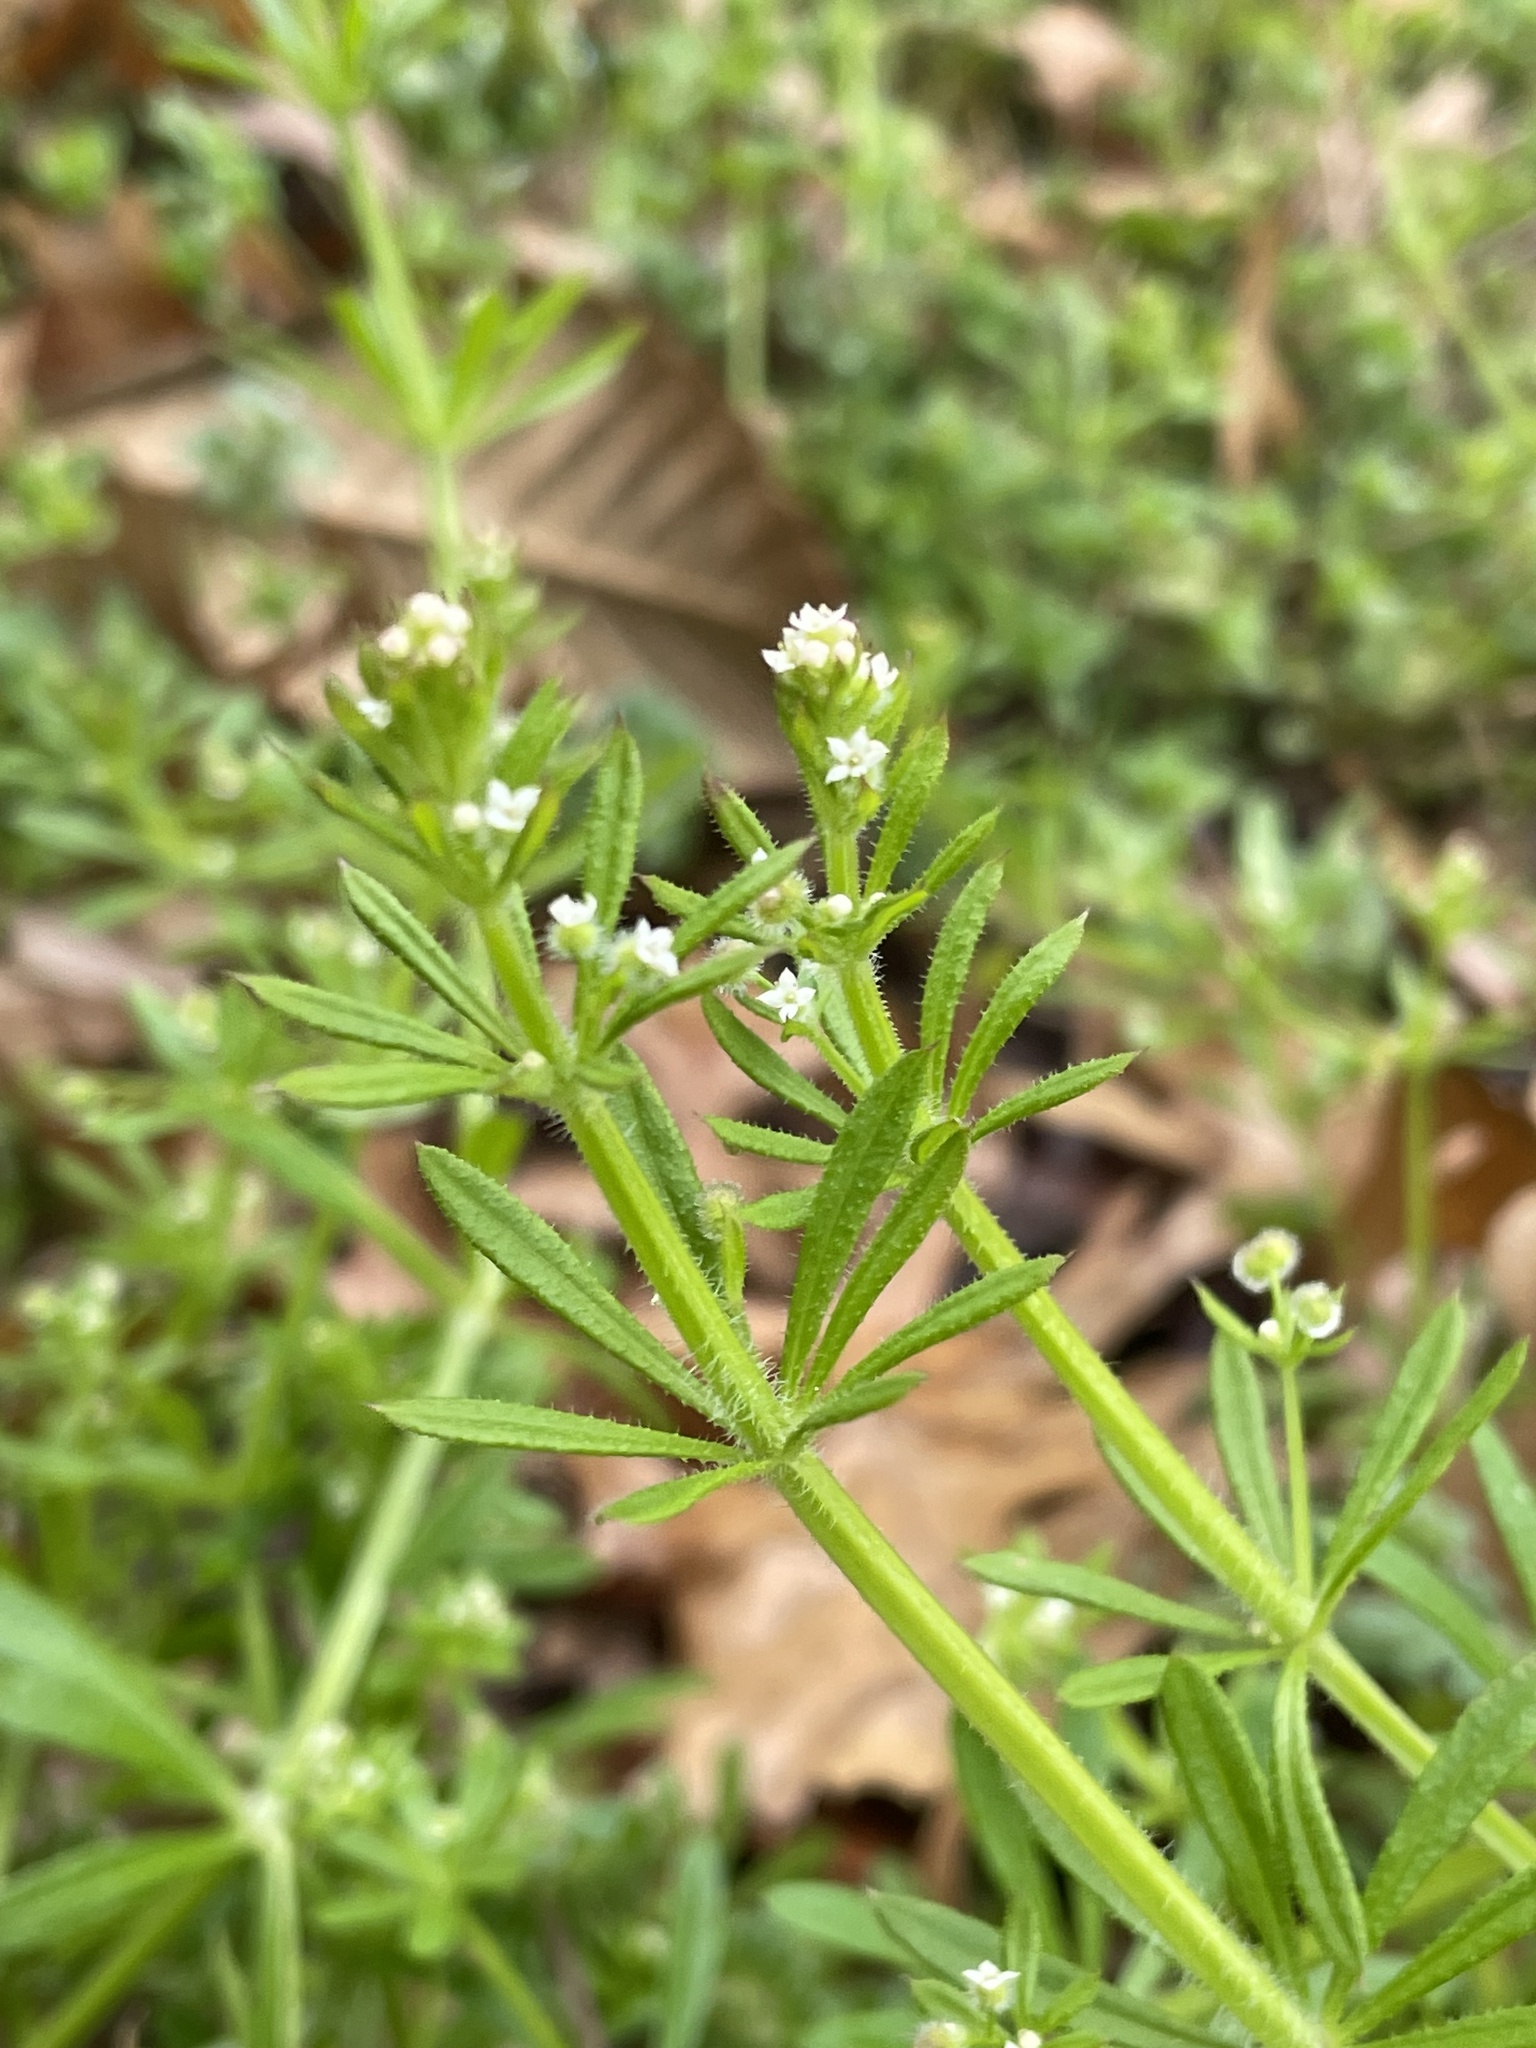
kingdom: Plantae
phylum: Tracheophyta
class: Magnoliopsida
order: Gentianales
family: Rubiaceae
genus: Galium
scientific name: Galium aparine
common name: Cleavers
